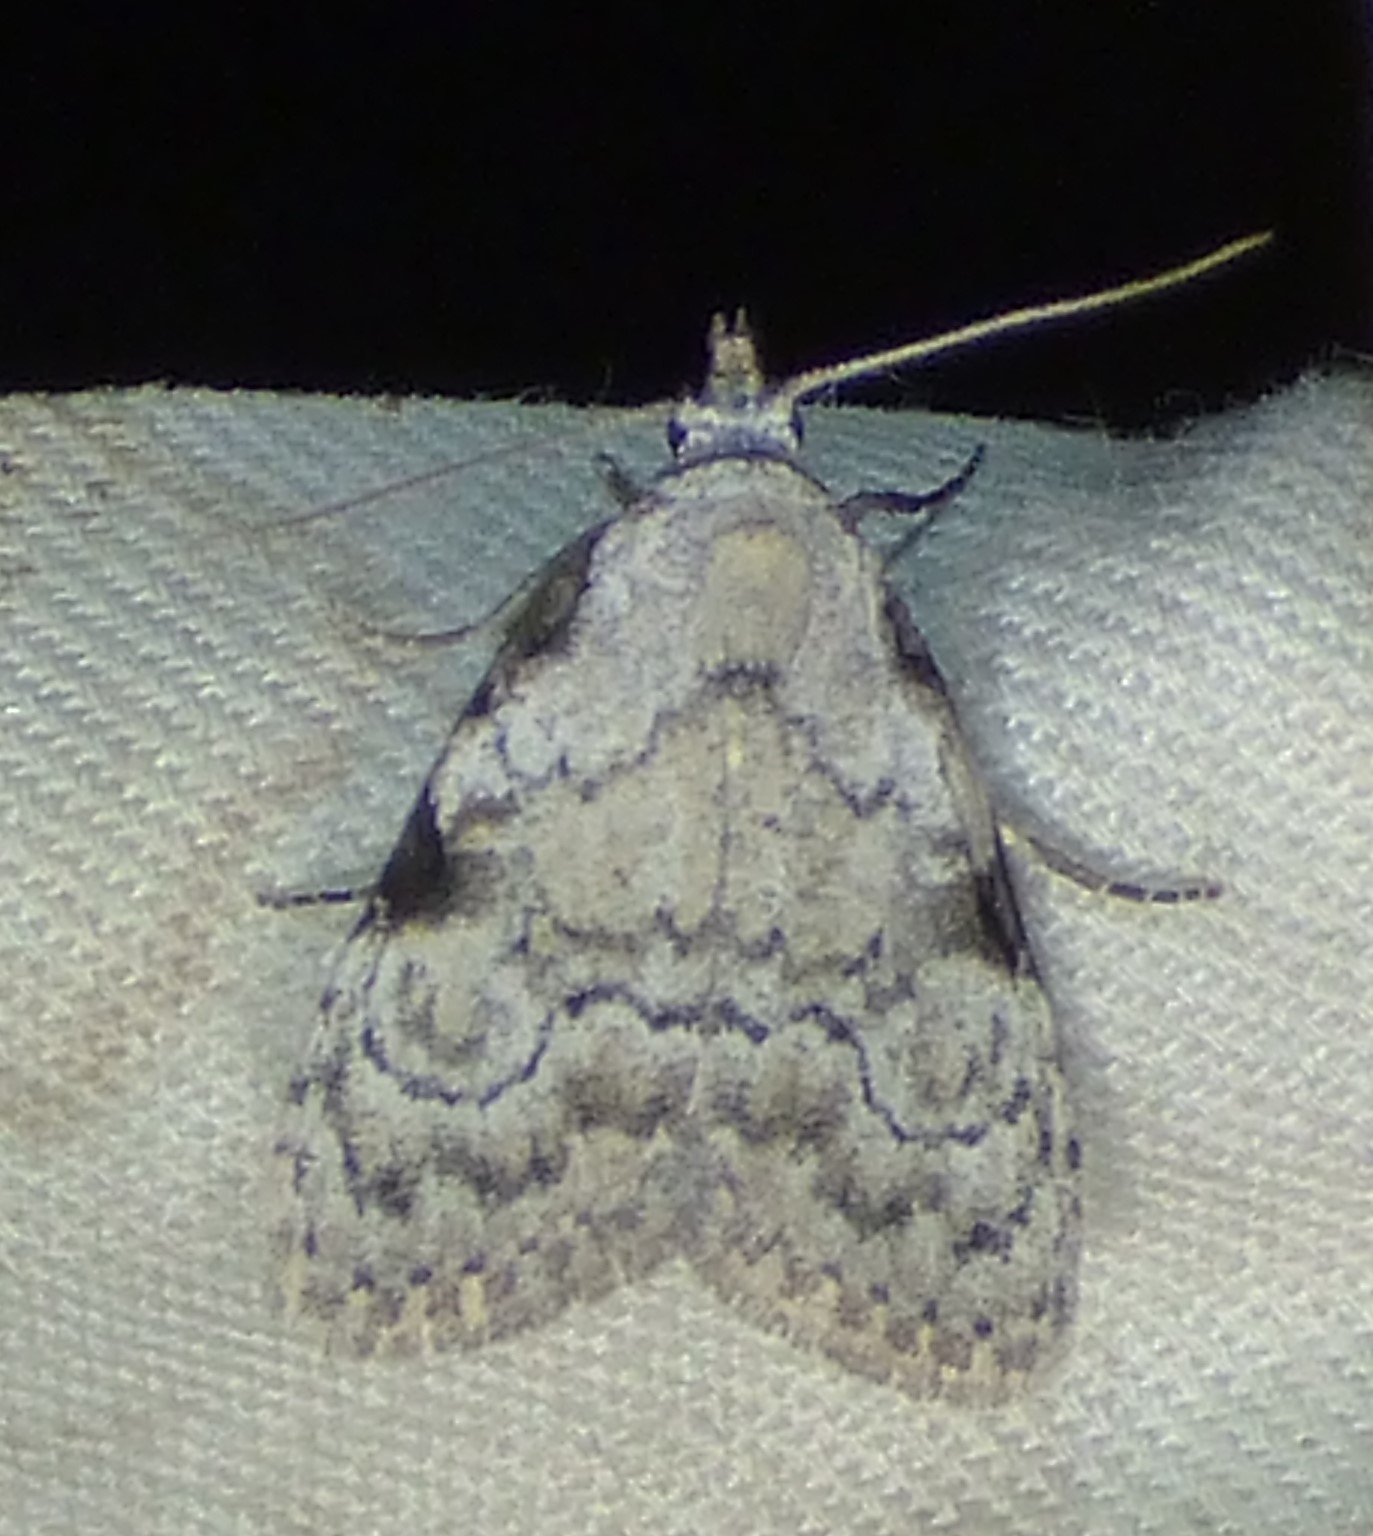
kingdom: Animalia
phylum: Arthropoda
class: Insecta
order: Lepidoptera
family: Nolidae
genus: Meganola
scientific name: Meganola minuscula
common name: Confused meganola moth
